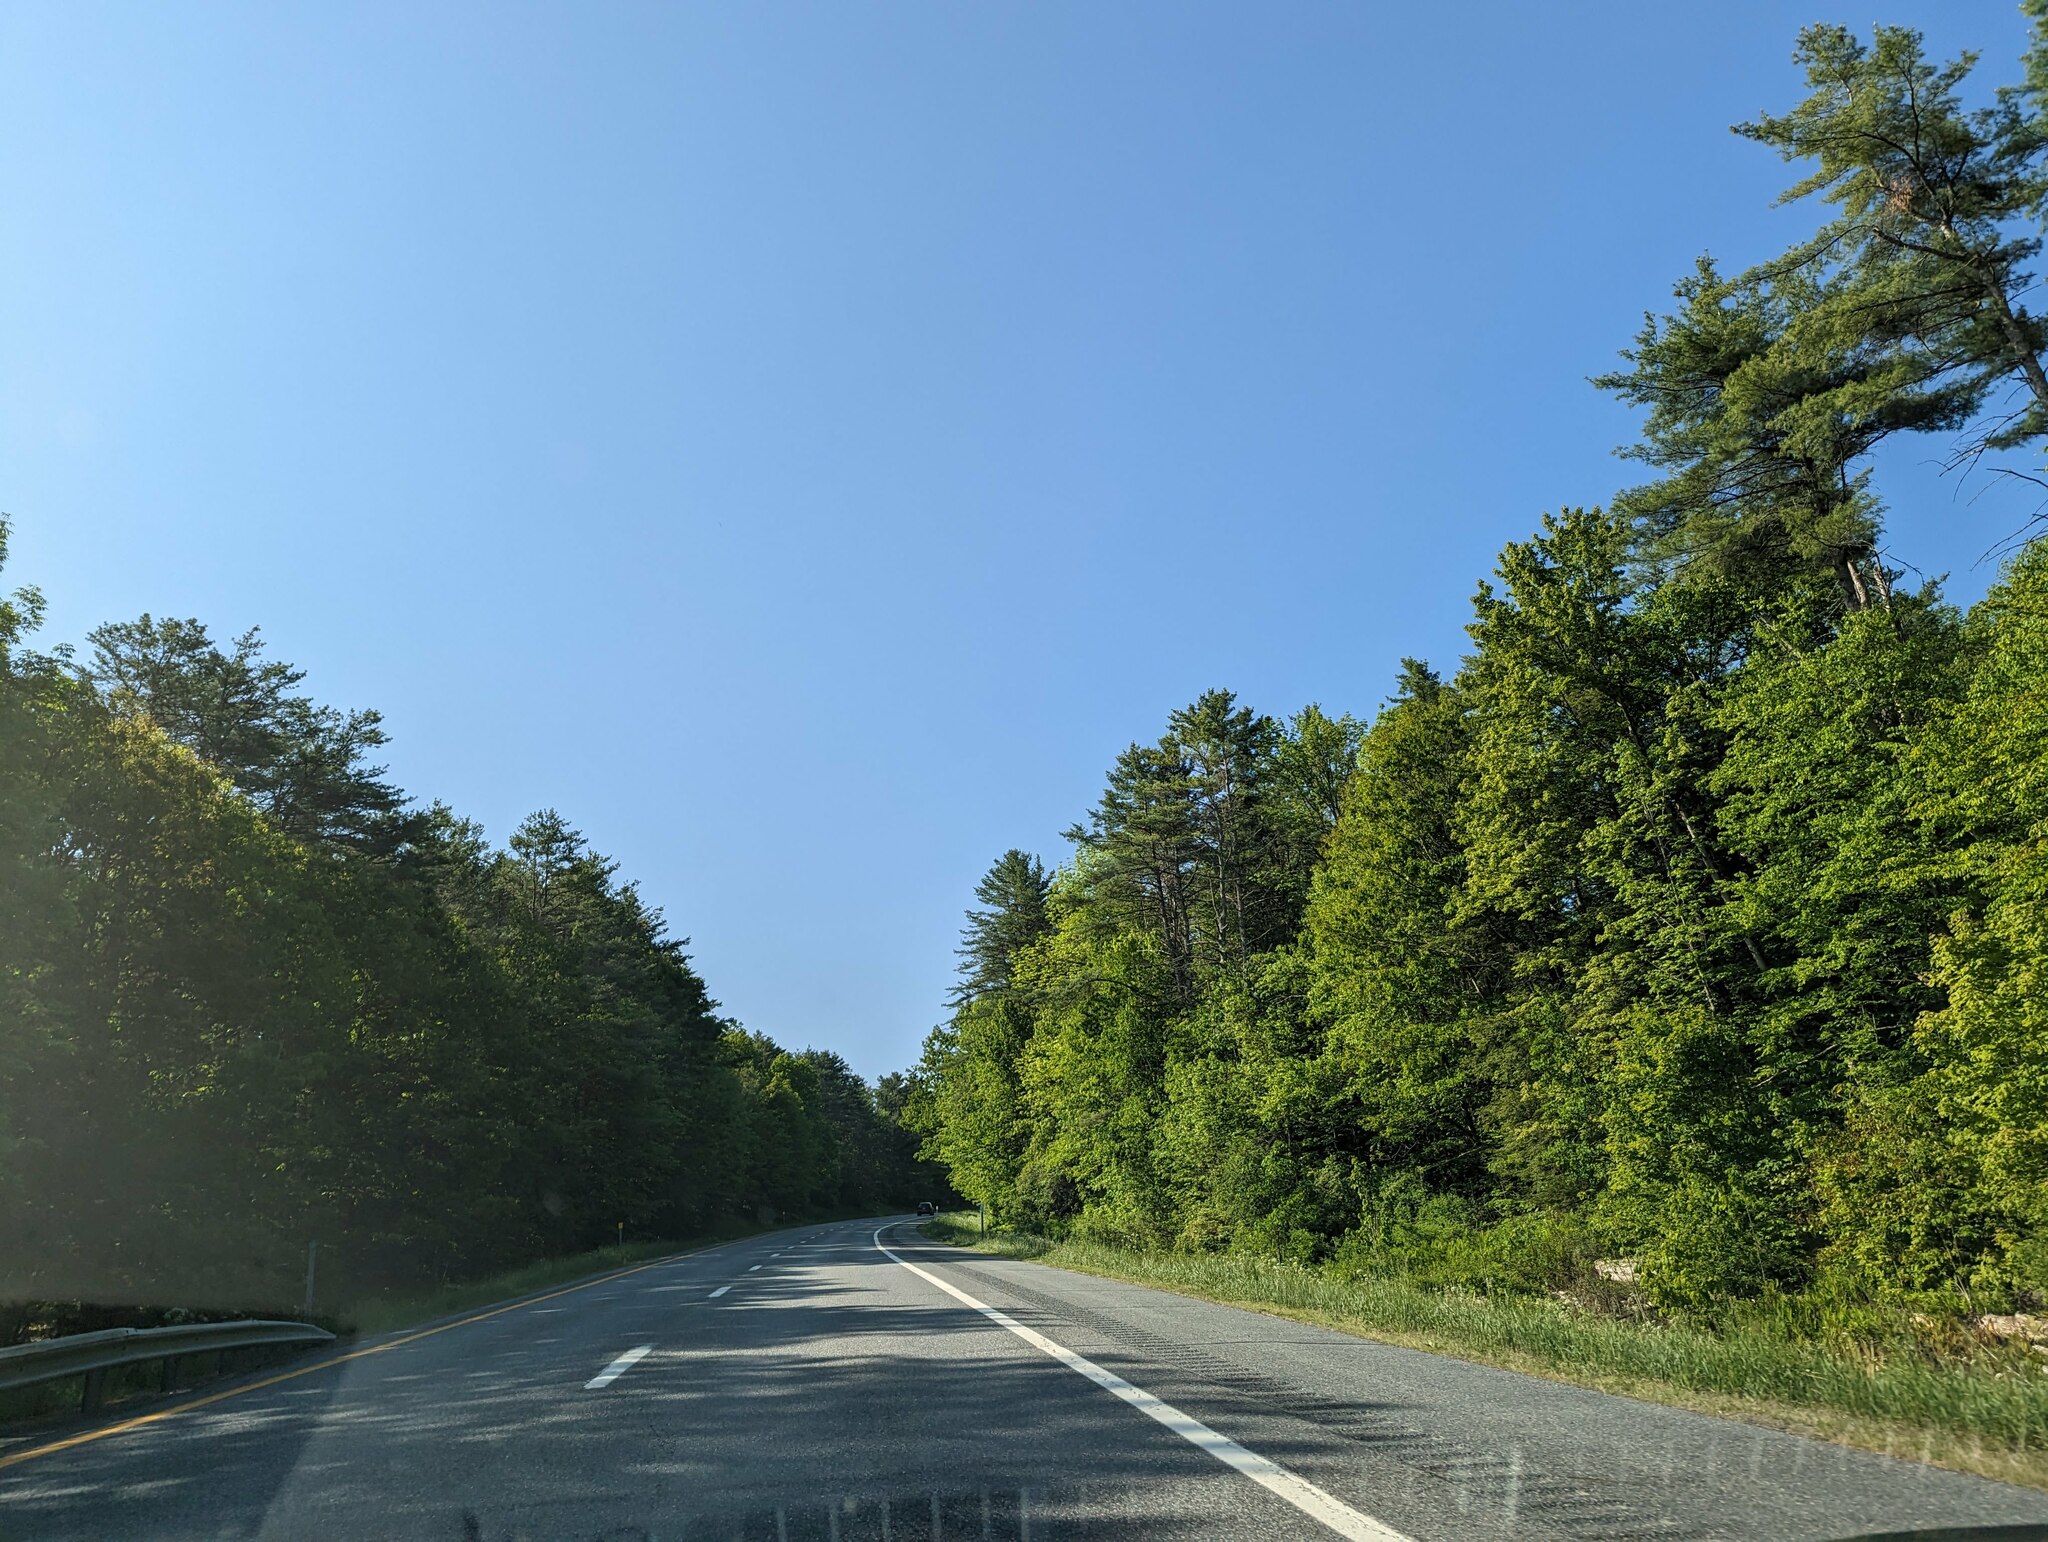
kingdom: Plantae
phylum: Tracheophyta
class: Pinopsida
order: Pinales
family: Pinaceae
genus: Pinus
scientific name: Pinus strobus
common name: Weymouth pine
